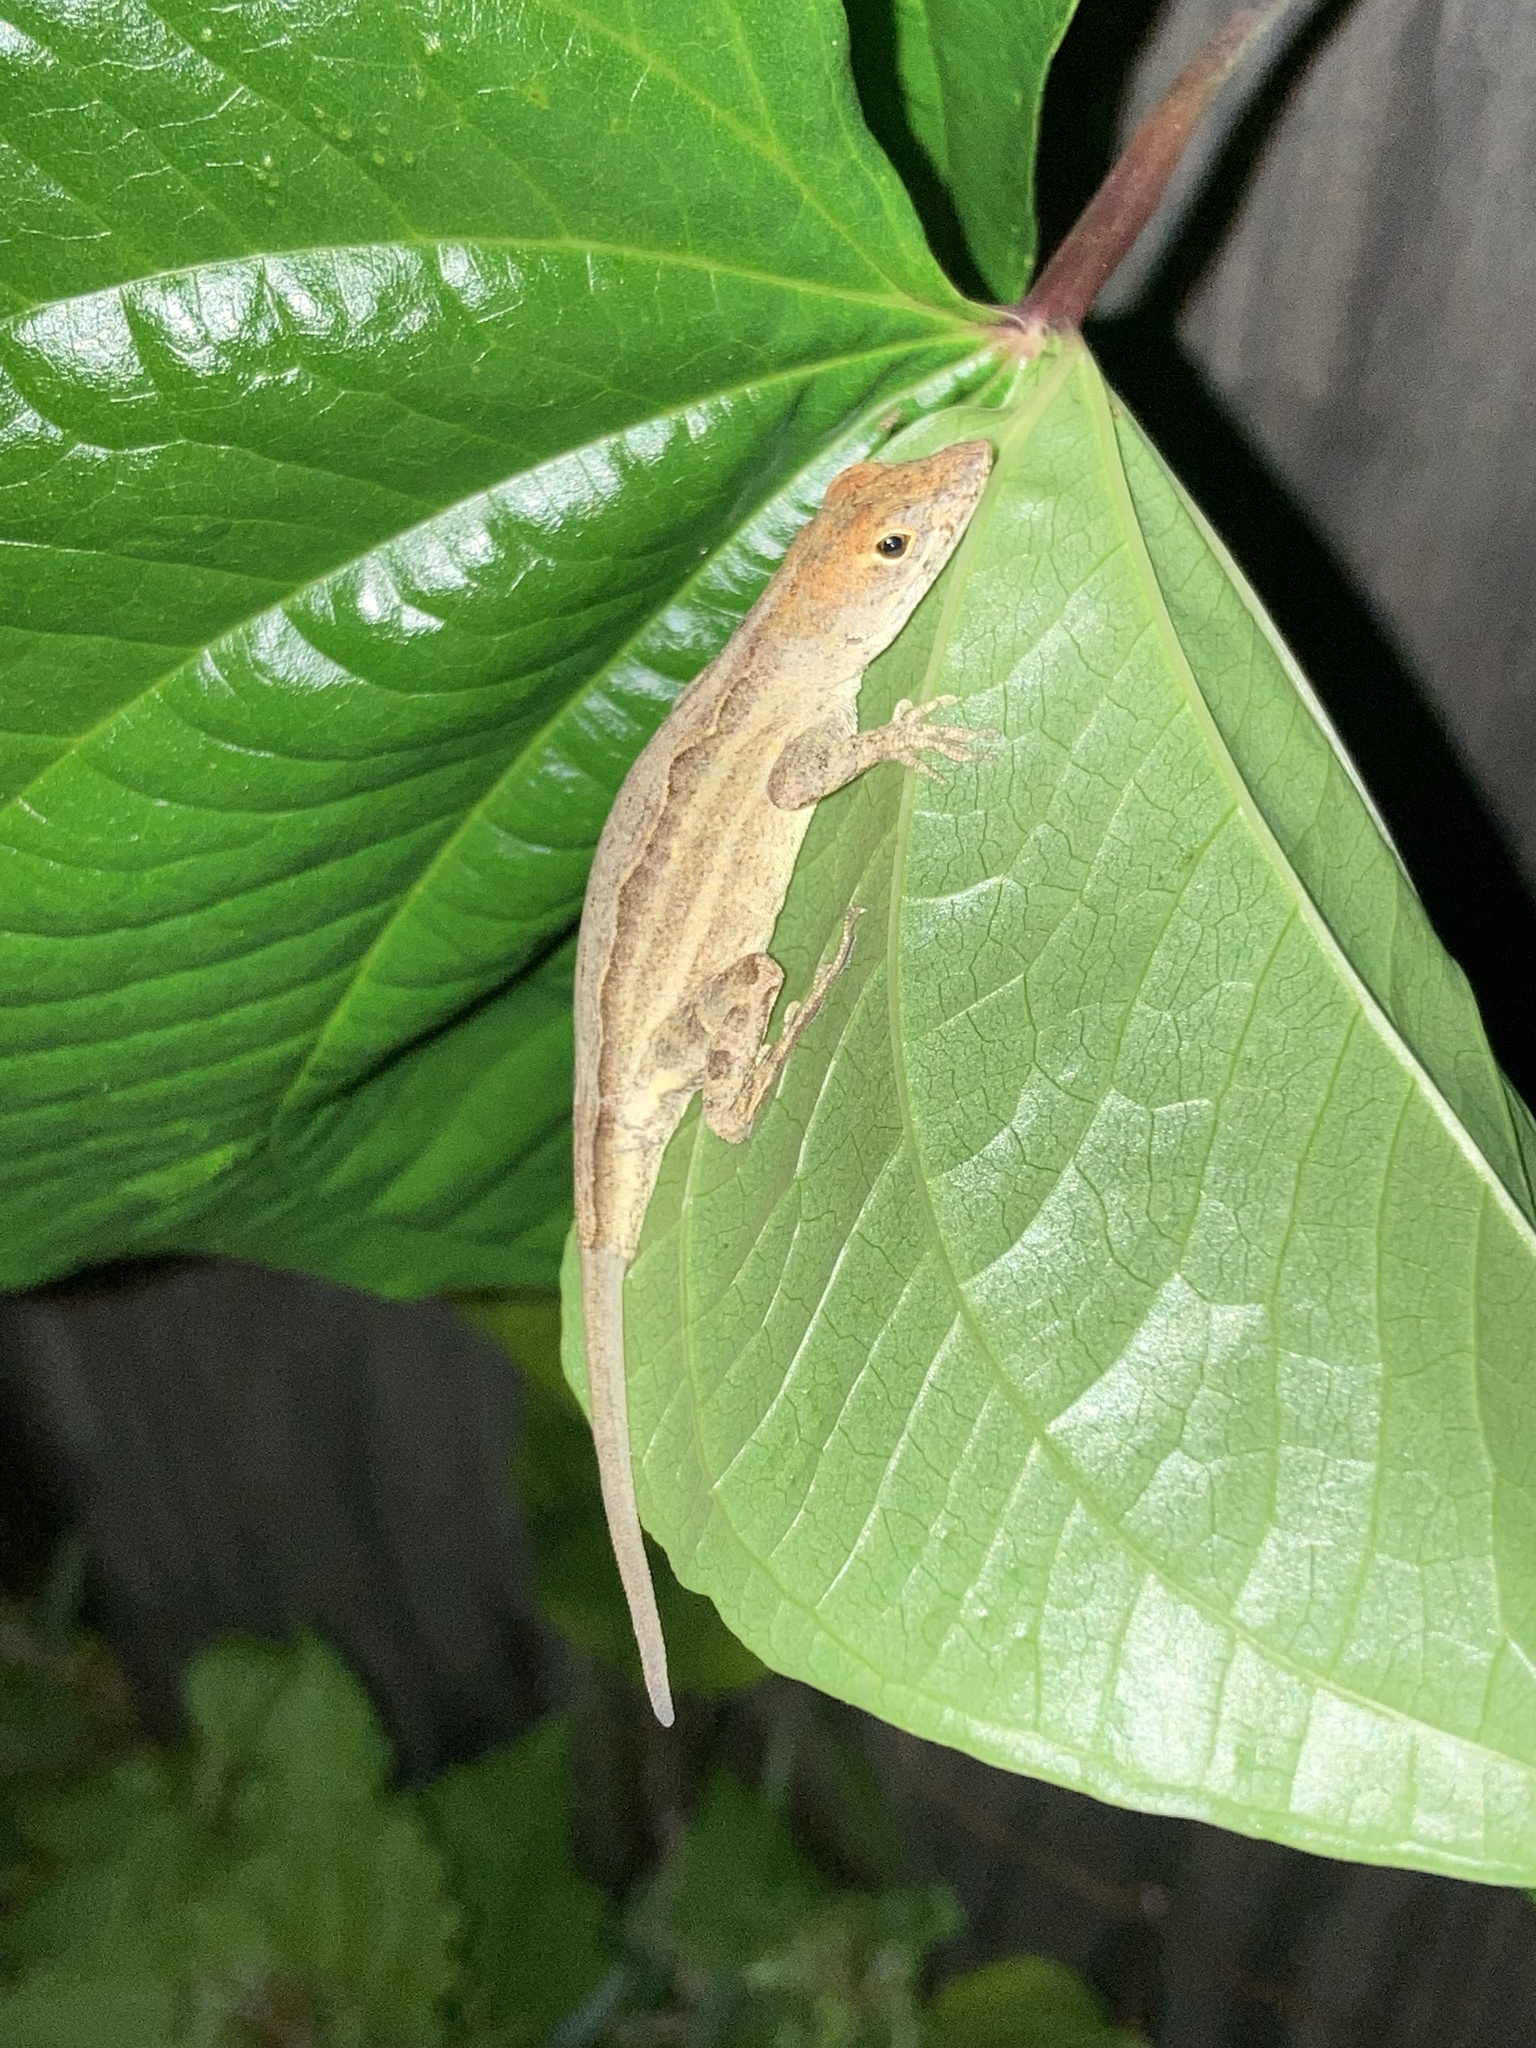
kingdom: Animalia
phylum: Chordata
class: Squamata
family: Dactyloidae
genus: Anolis
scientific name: Anolis sagrei
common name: Brown anole
